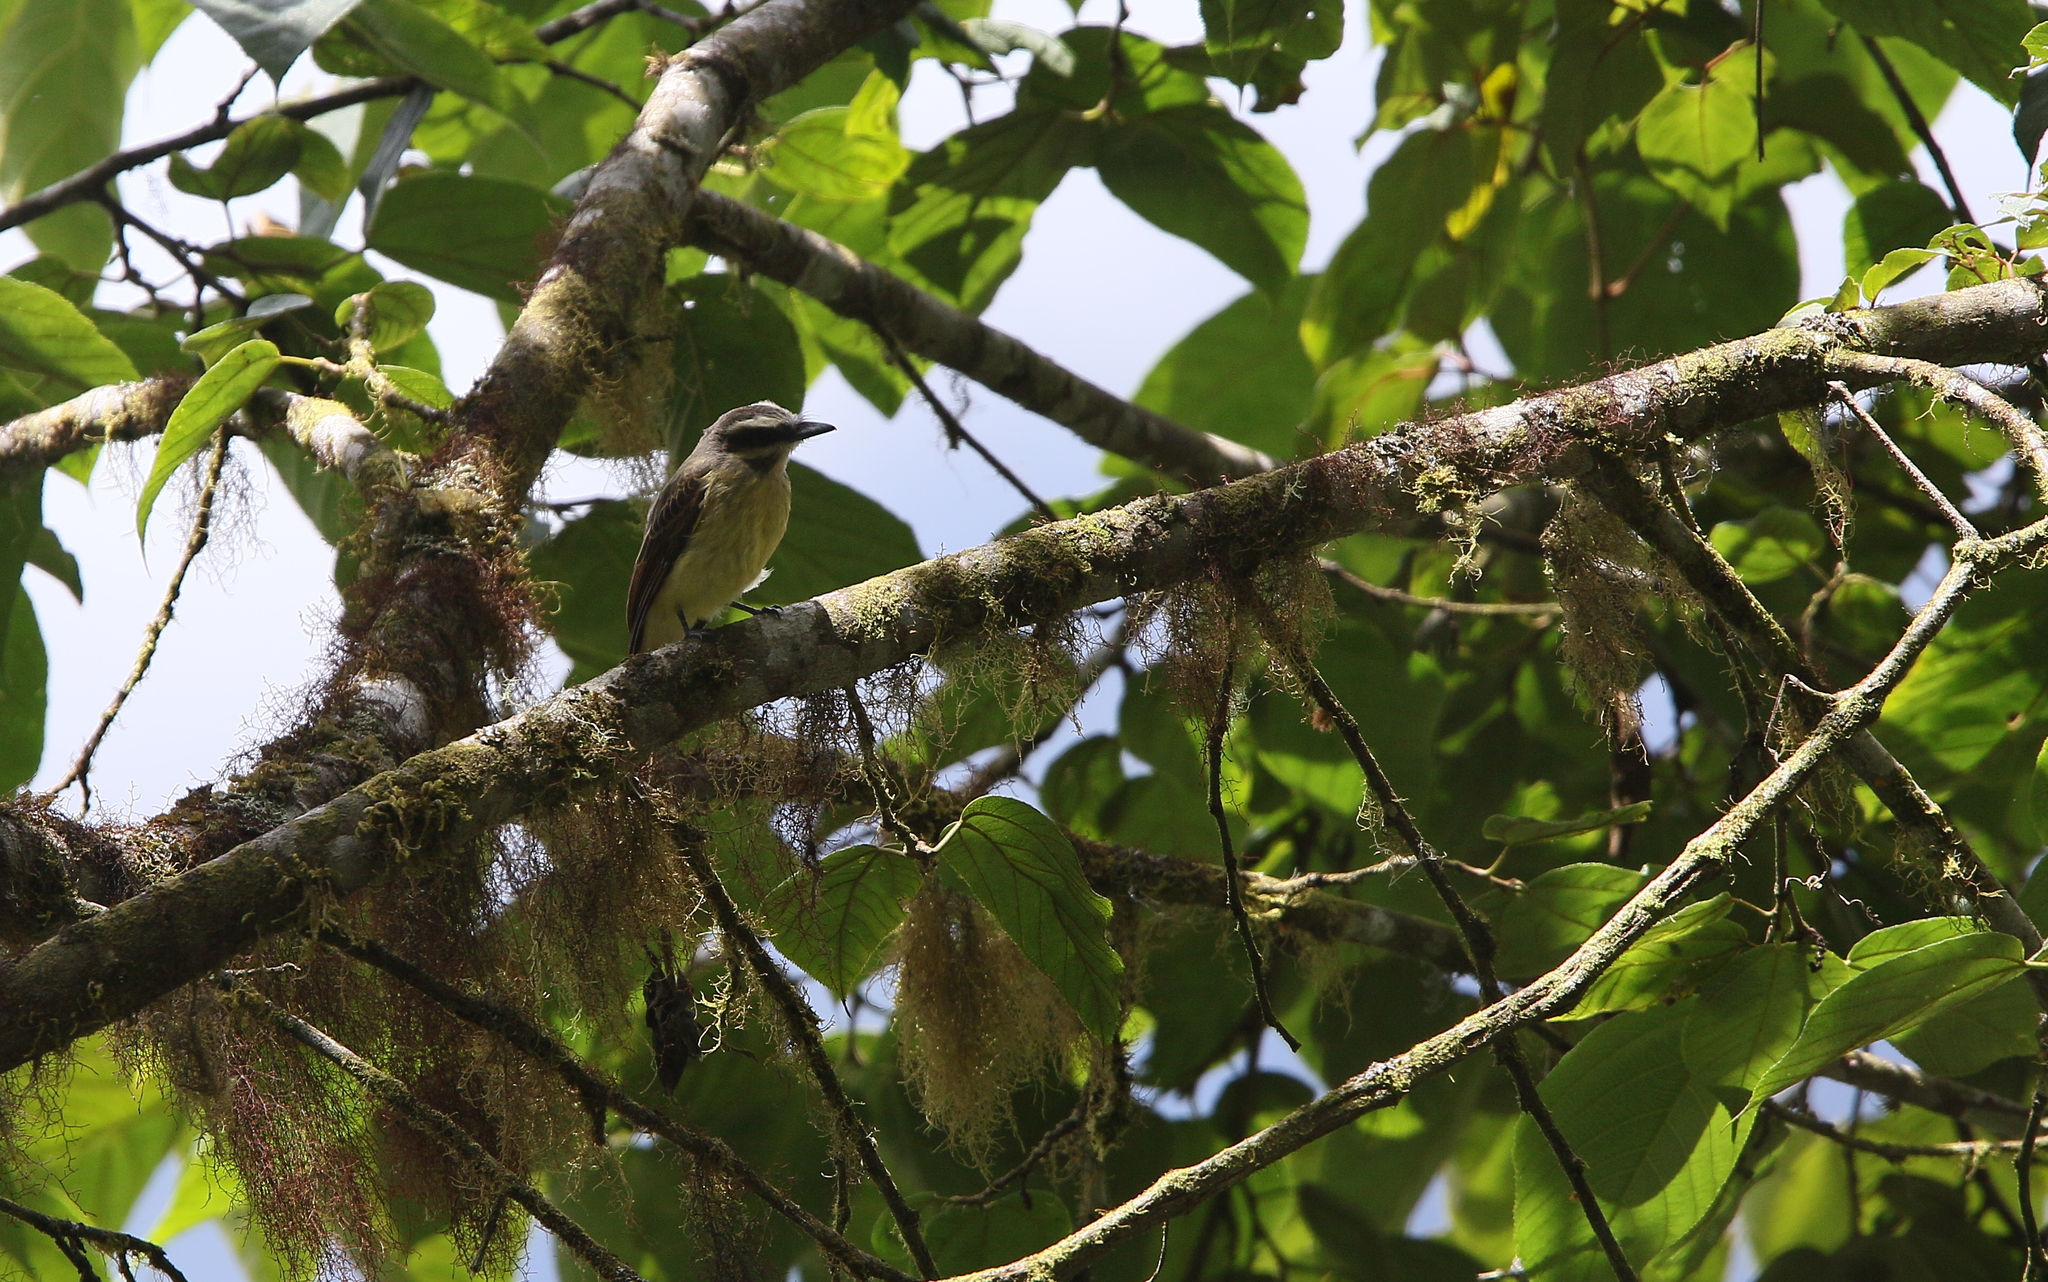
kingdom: Animalia
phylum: Chordata
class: Aves
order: Passeriformes
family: Tyrannidae
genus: Myiodynastes
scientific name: Myiodynastes hemichrysus
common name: Golden-bellied flycatcher
